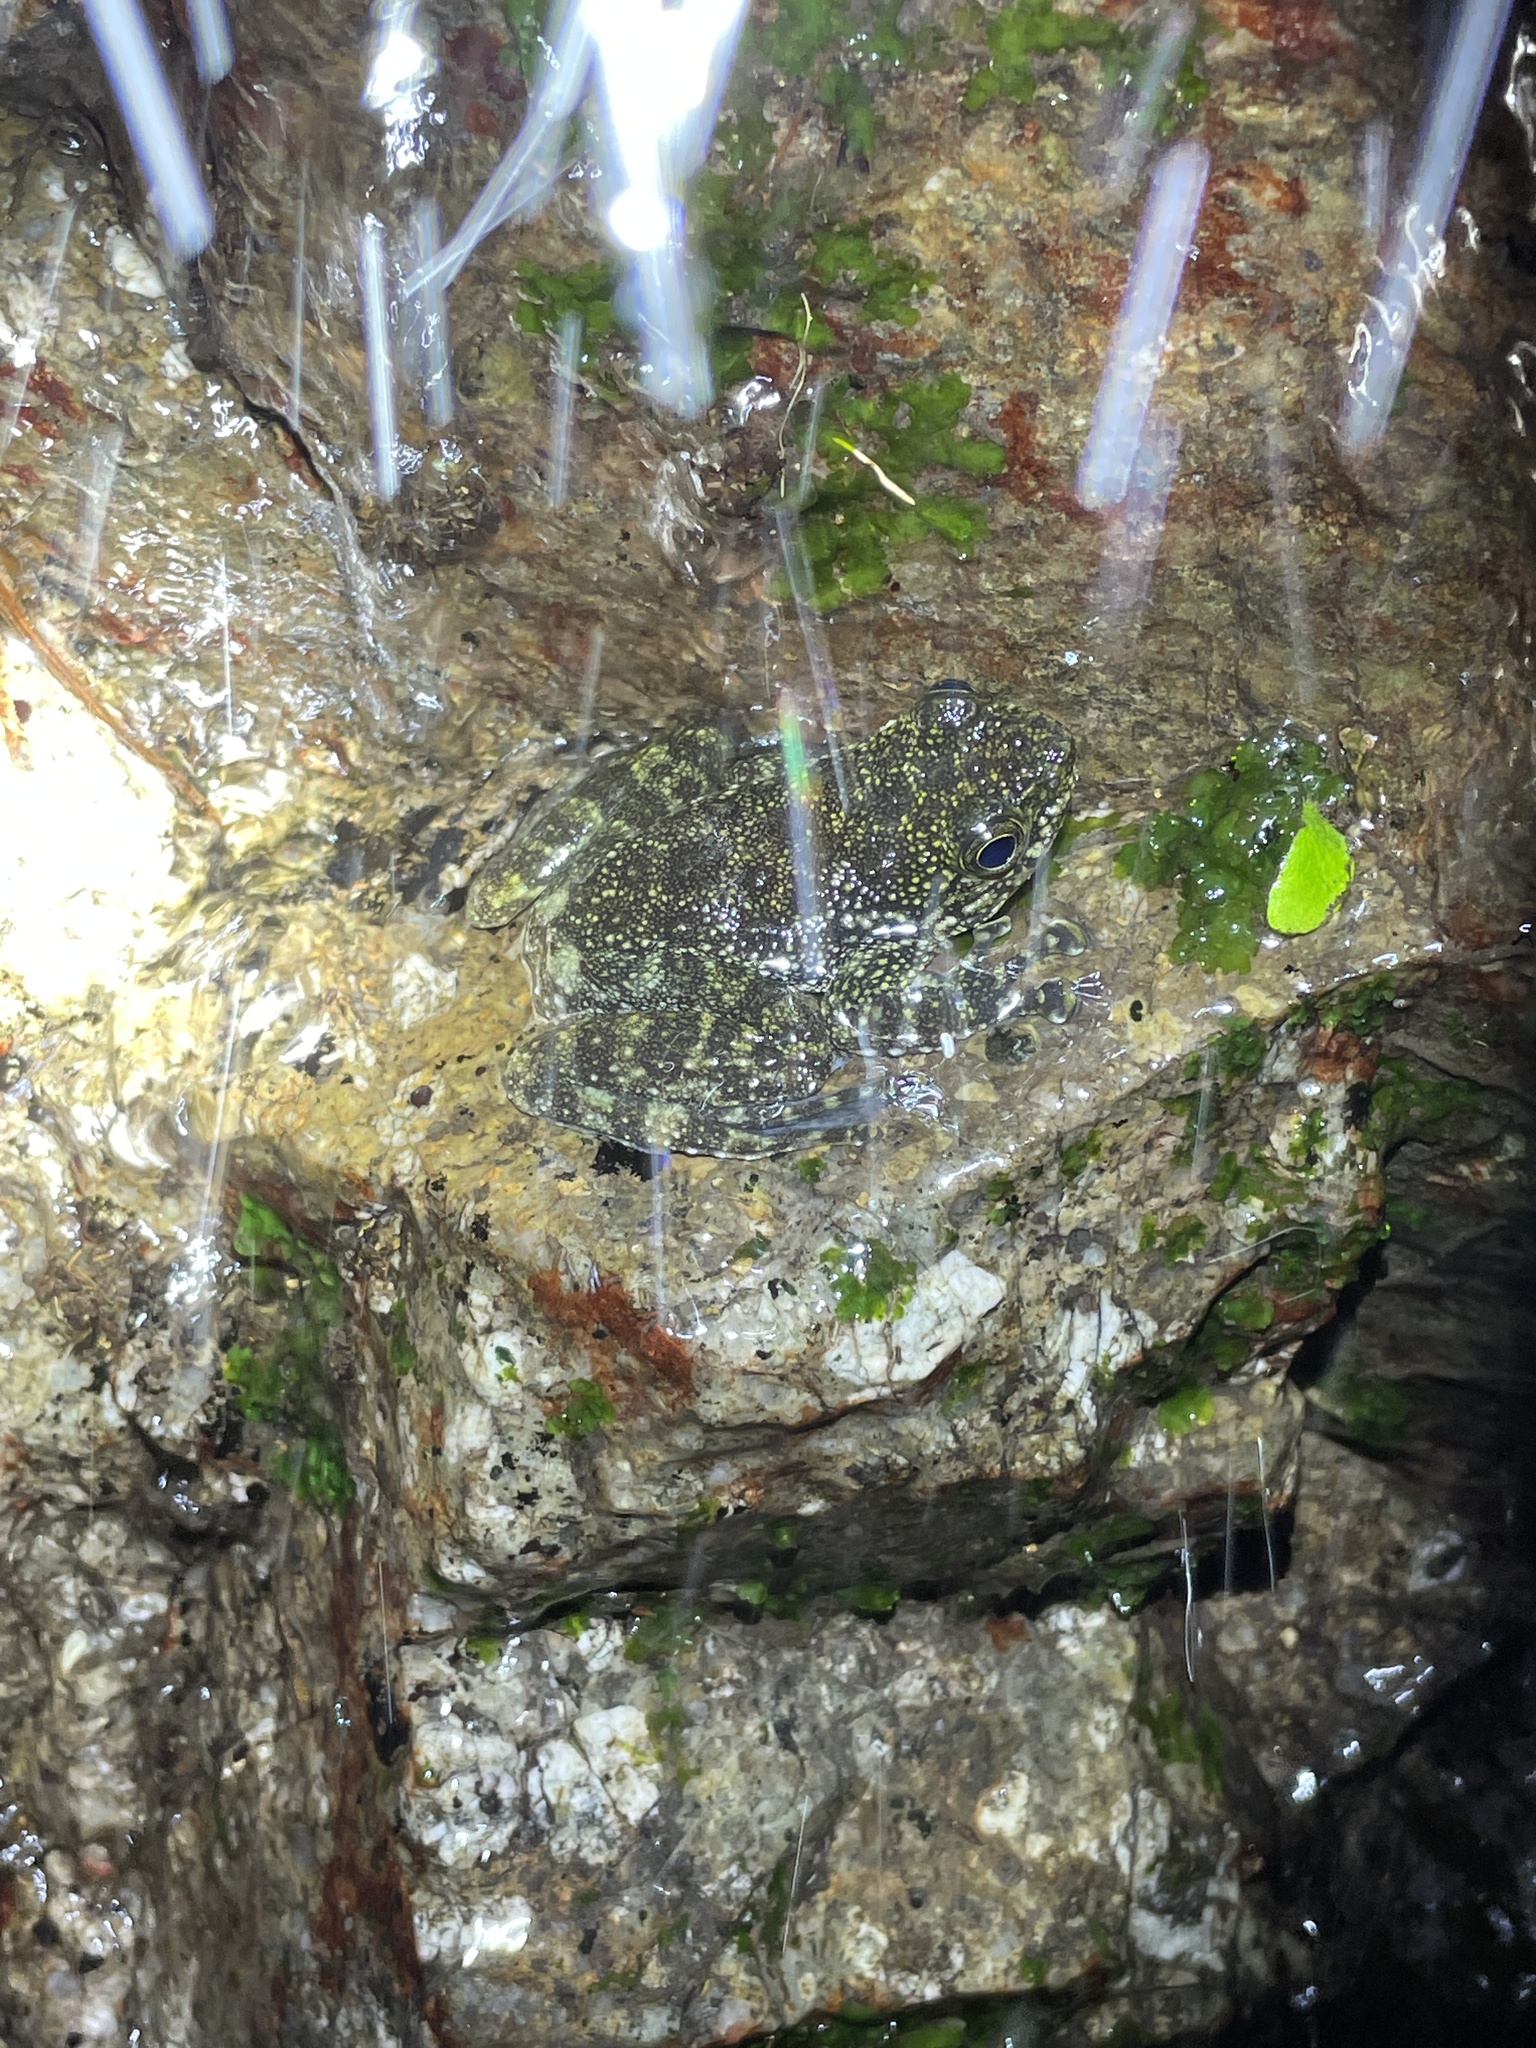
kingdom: Animalia
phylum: Chordata
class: Amphibia
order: Anura
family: Ranidae
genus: Amolops
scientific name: Amolops hongkongensis
